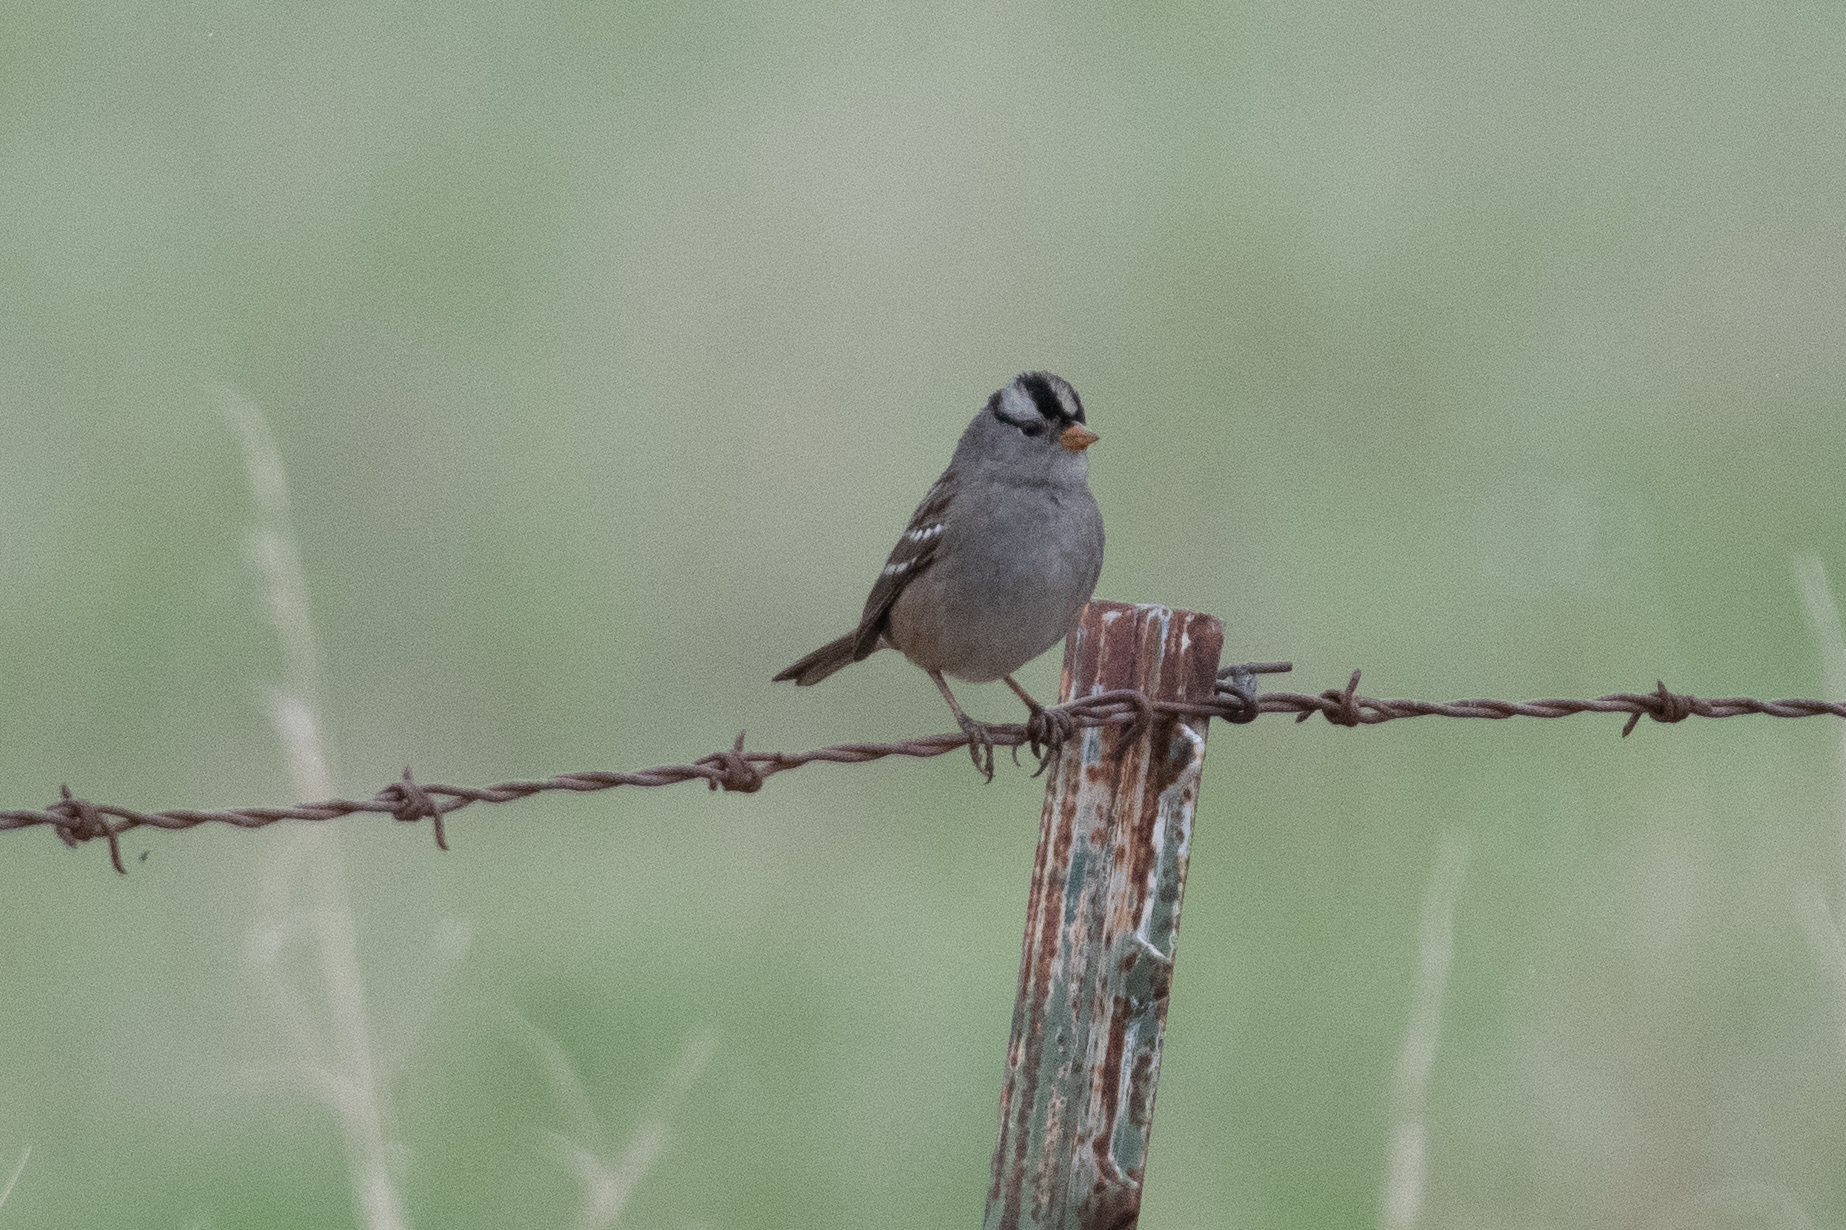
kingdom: Animalia
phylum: Chordata
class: Aves
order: Passeriformes
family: Passerellidae
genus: Zonotrichia
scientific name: Zonotrichia leucophrys
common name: White-crowned sparrow
